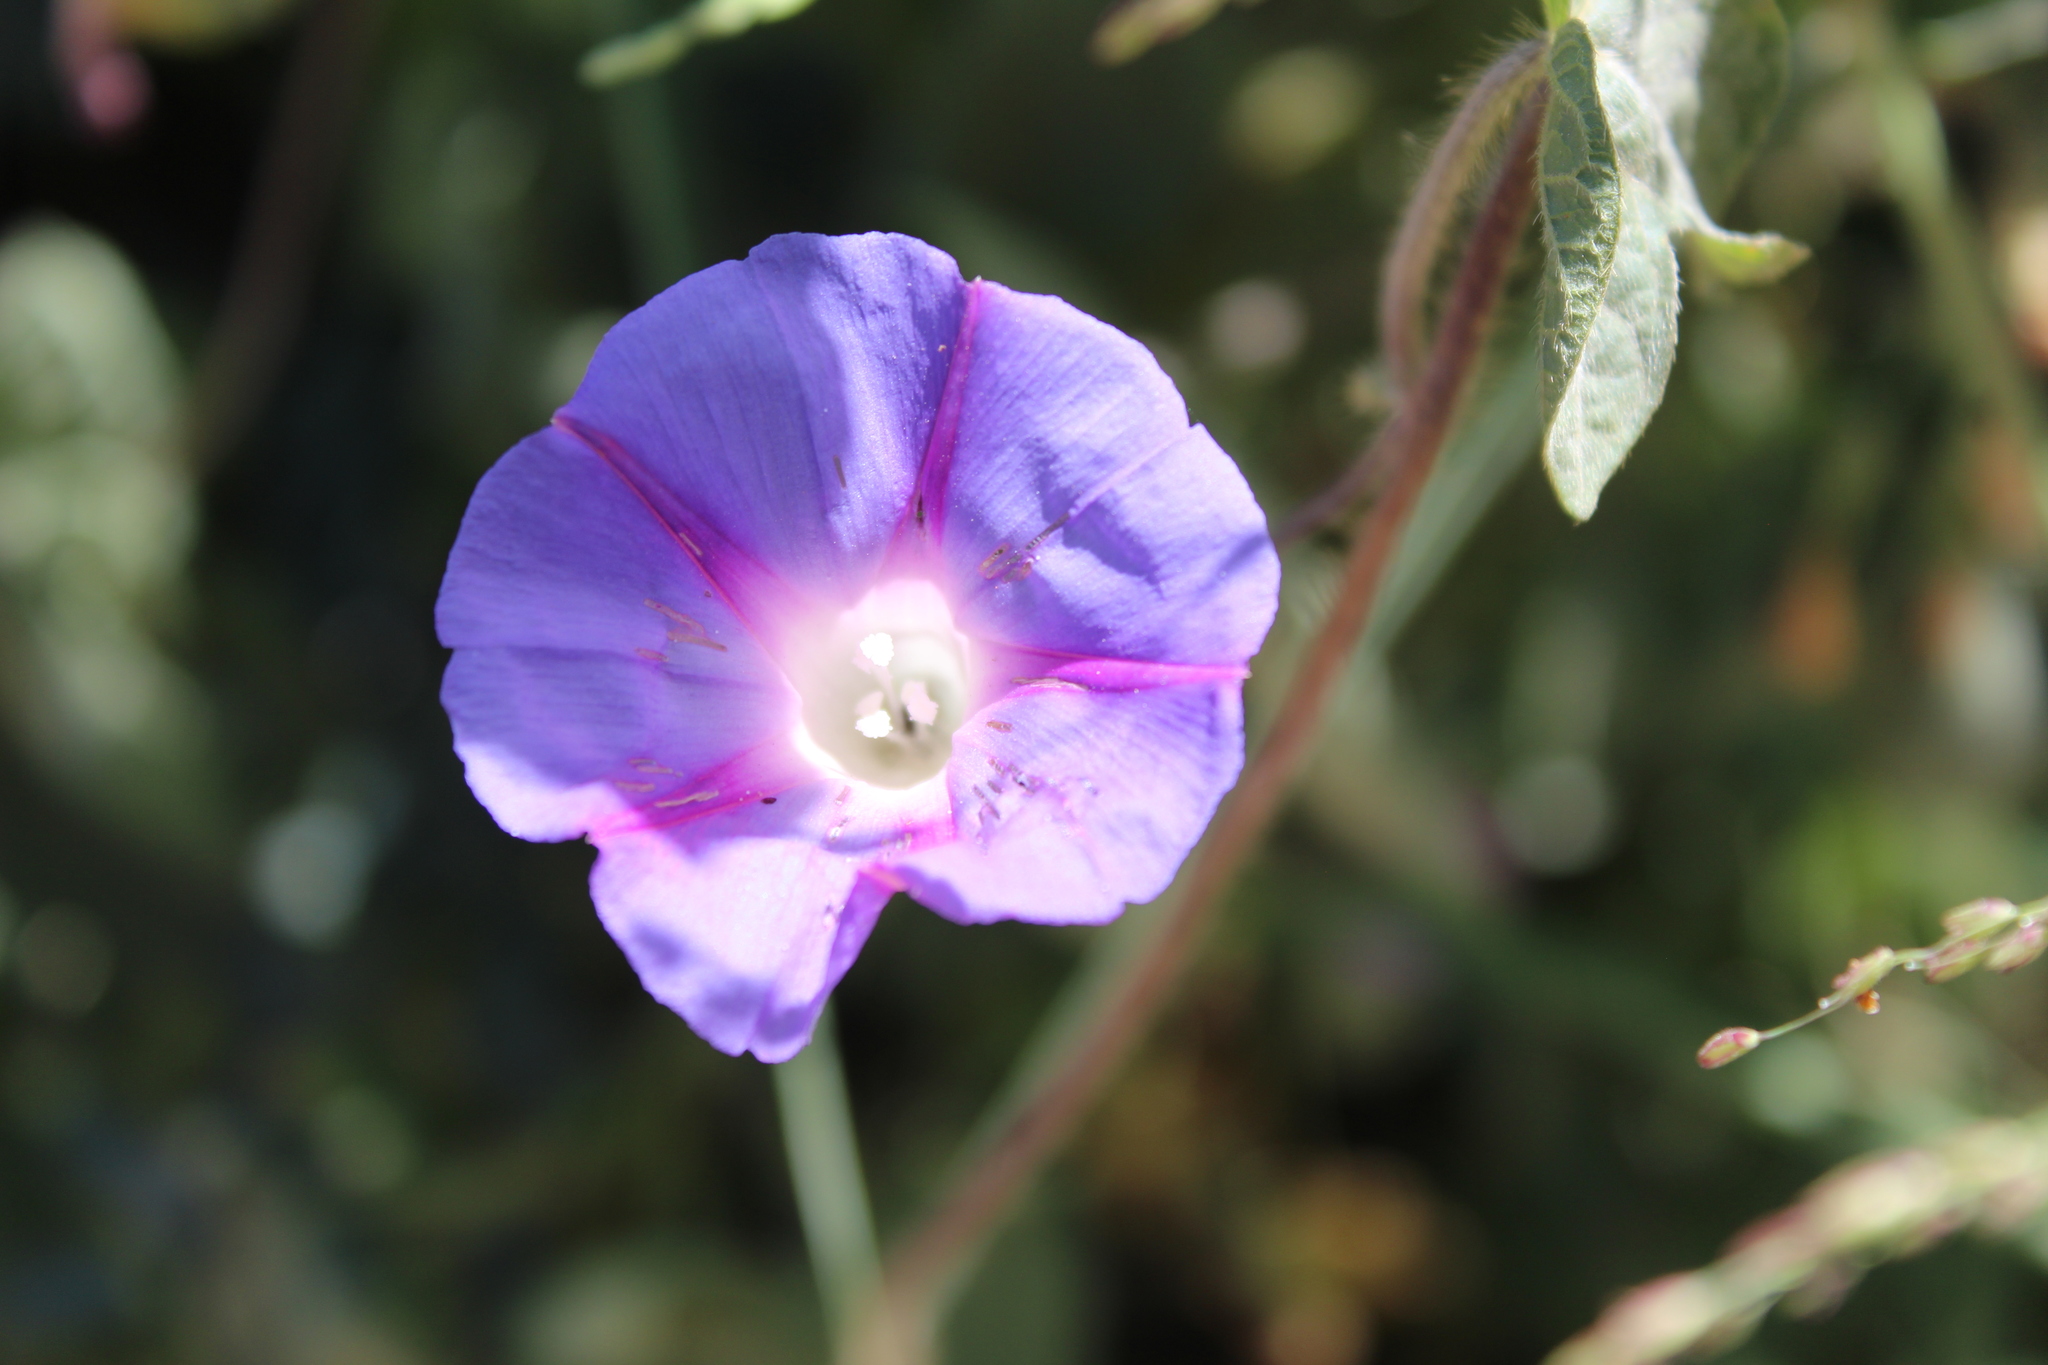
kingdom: Plantae
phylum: Tracheophyta
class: Magnoliopsida
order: Solanales
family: Convolvulaceae
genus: Ipomoea
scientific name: Ipomoea purpurea
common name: Common morning-glory
